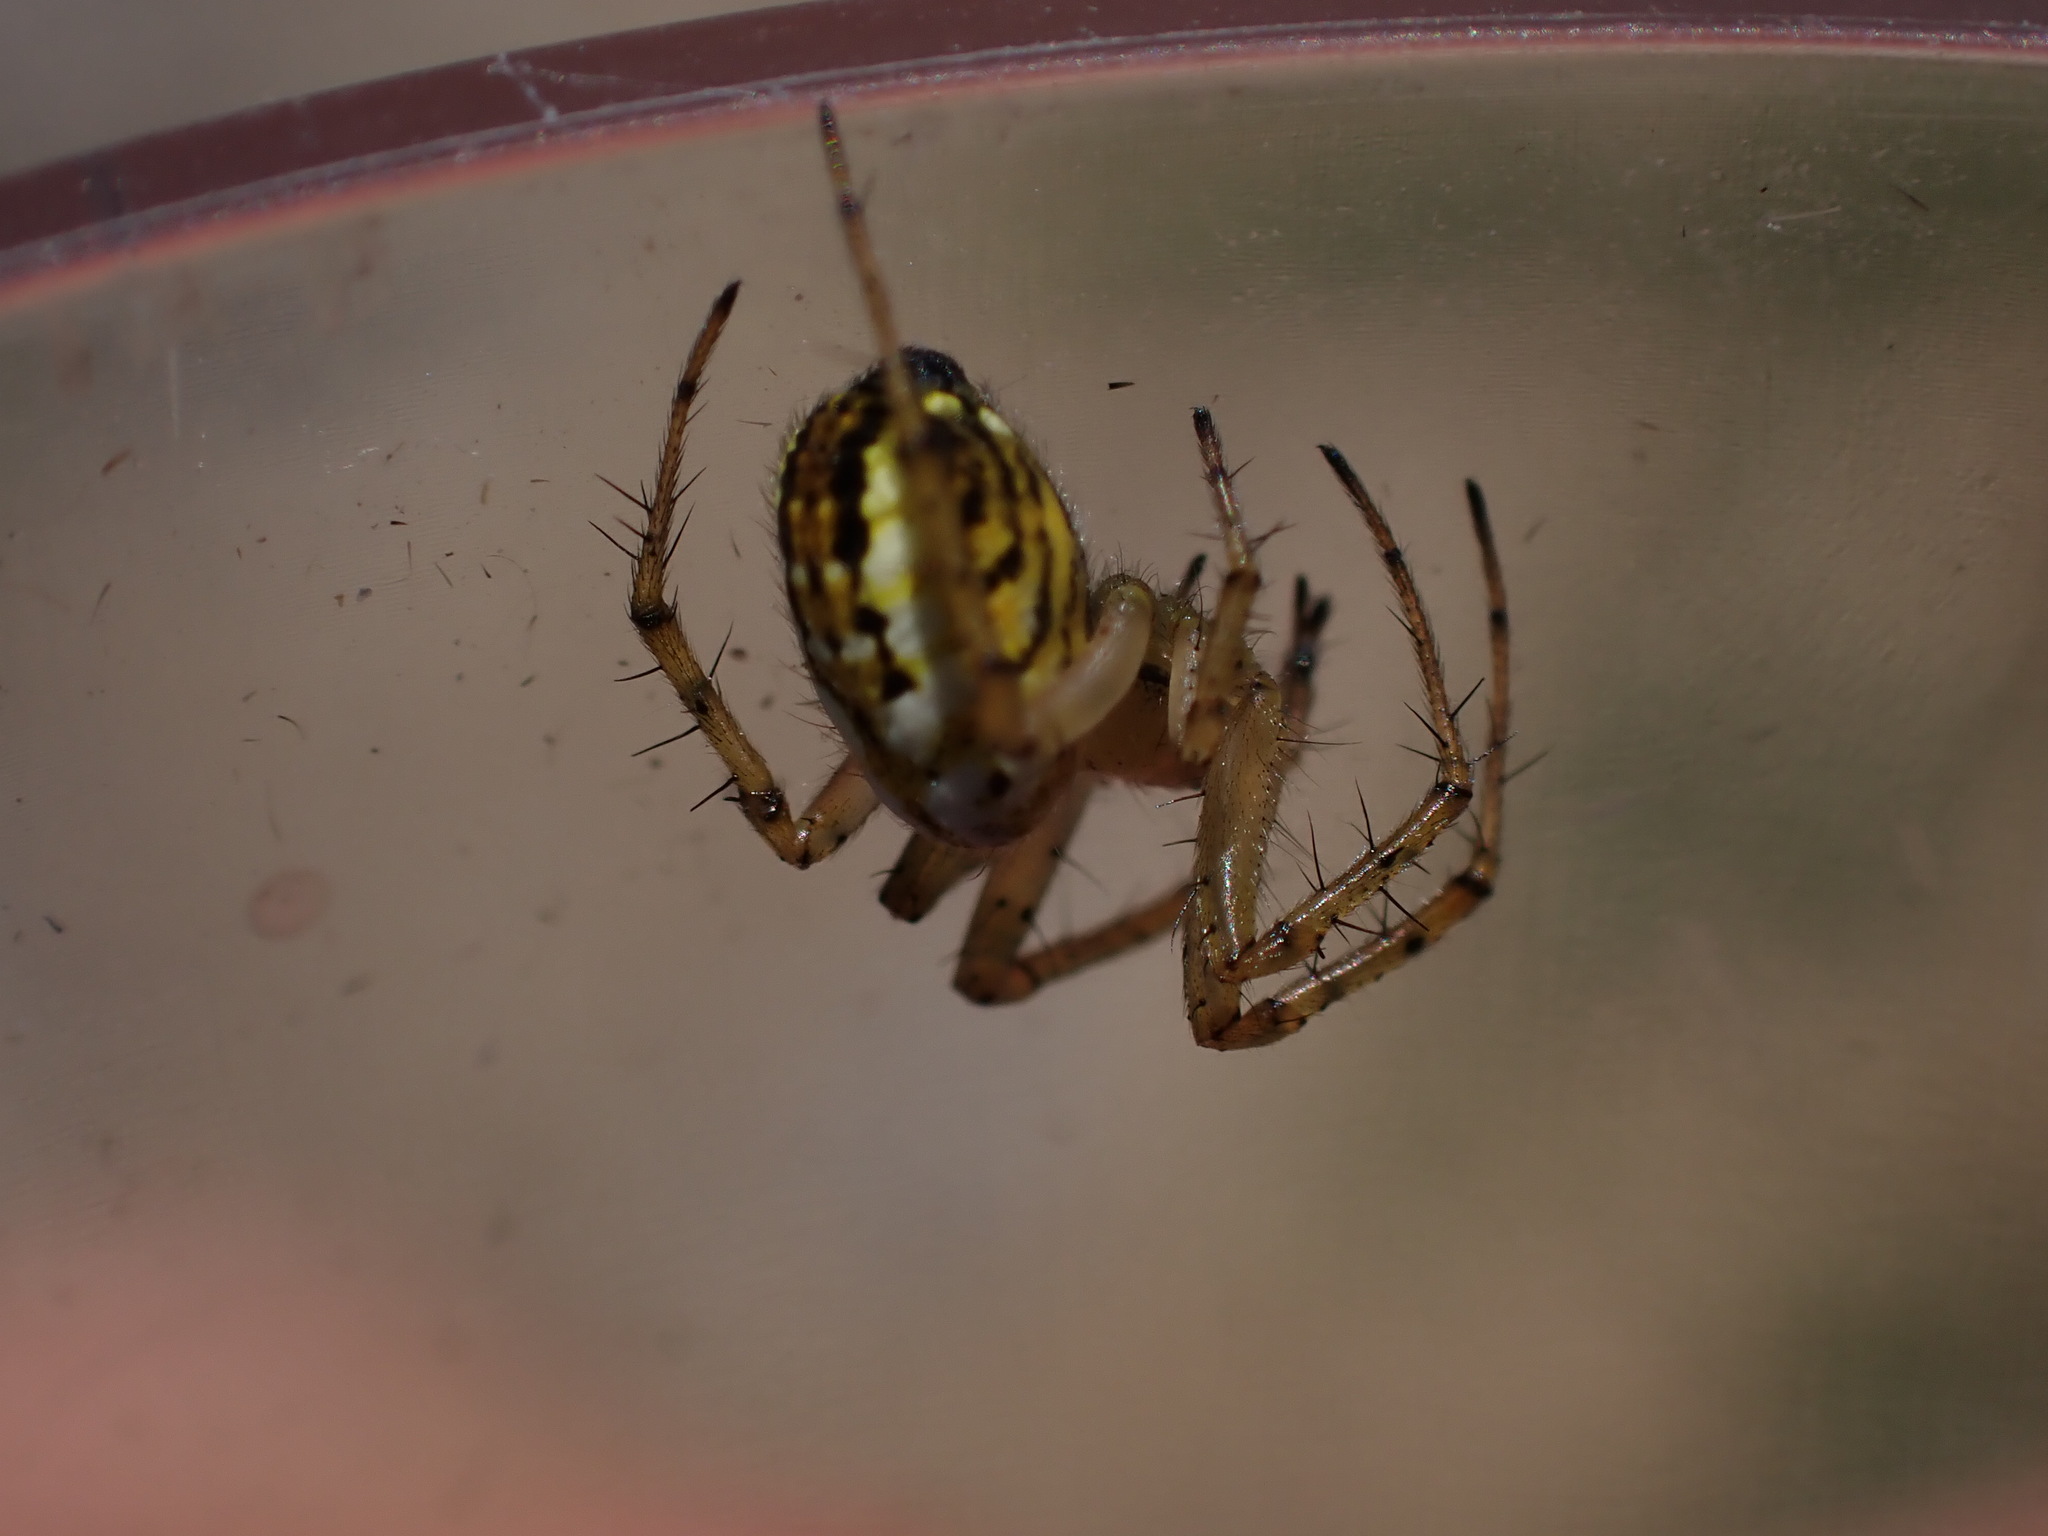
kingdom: Animalia
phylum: Arthropoda
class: Arachnida
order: Araneae
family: Araneidae
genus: Mangora
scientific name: Mangora acalypha
